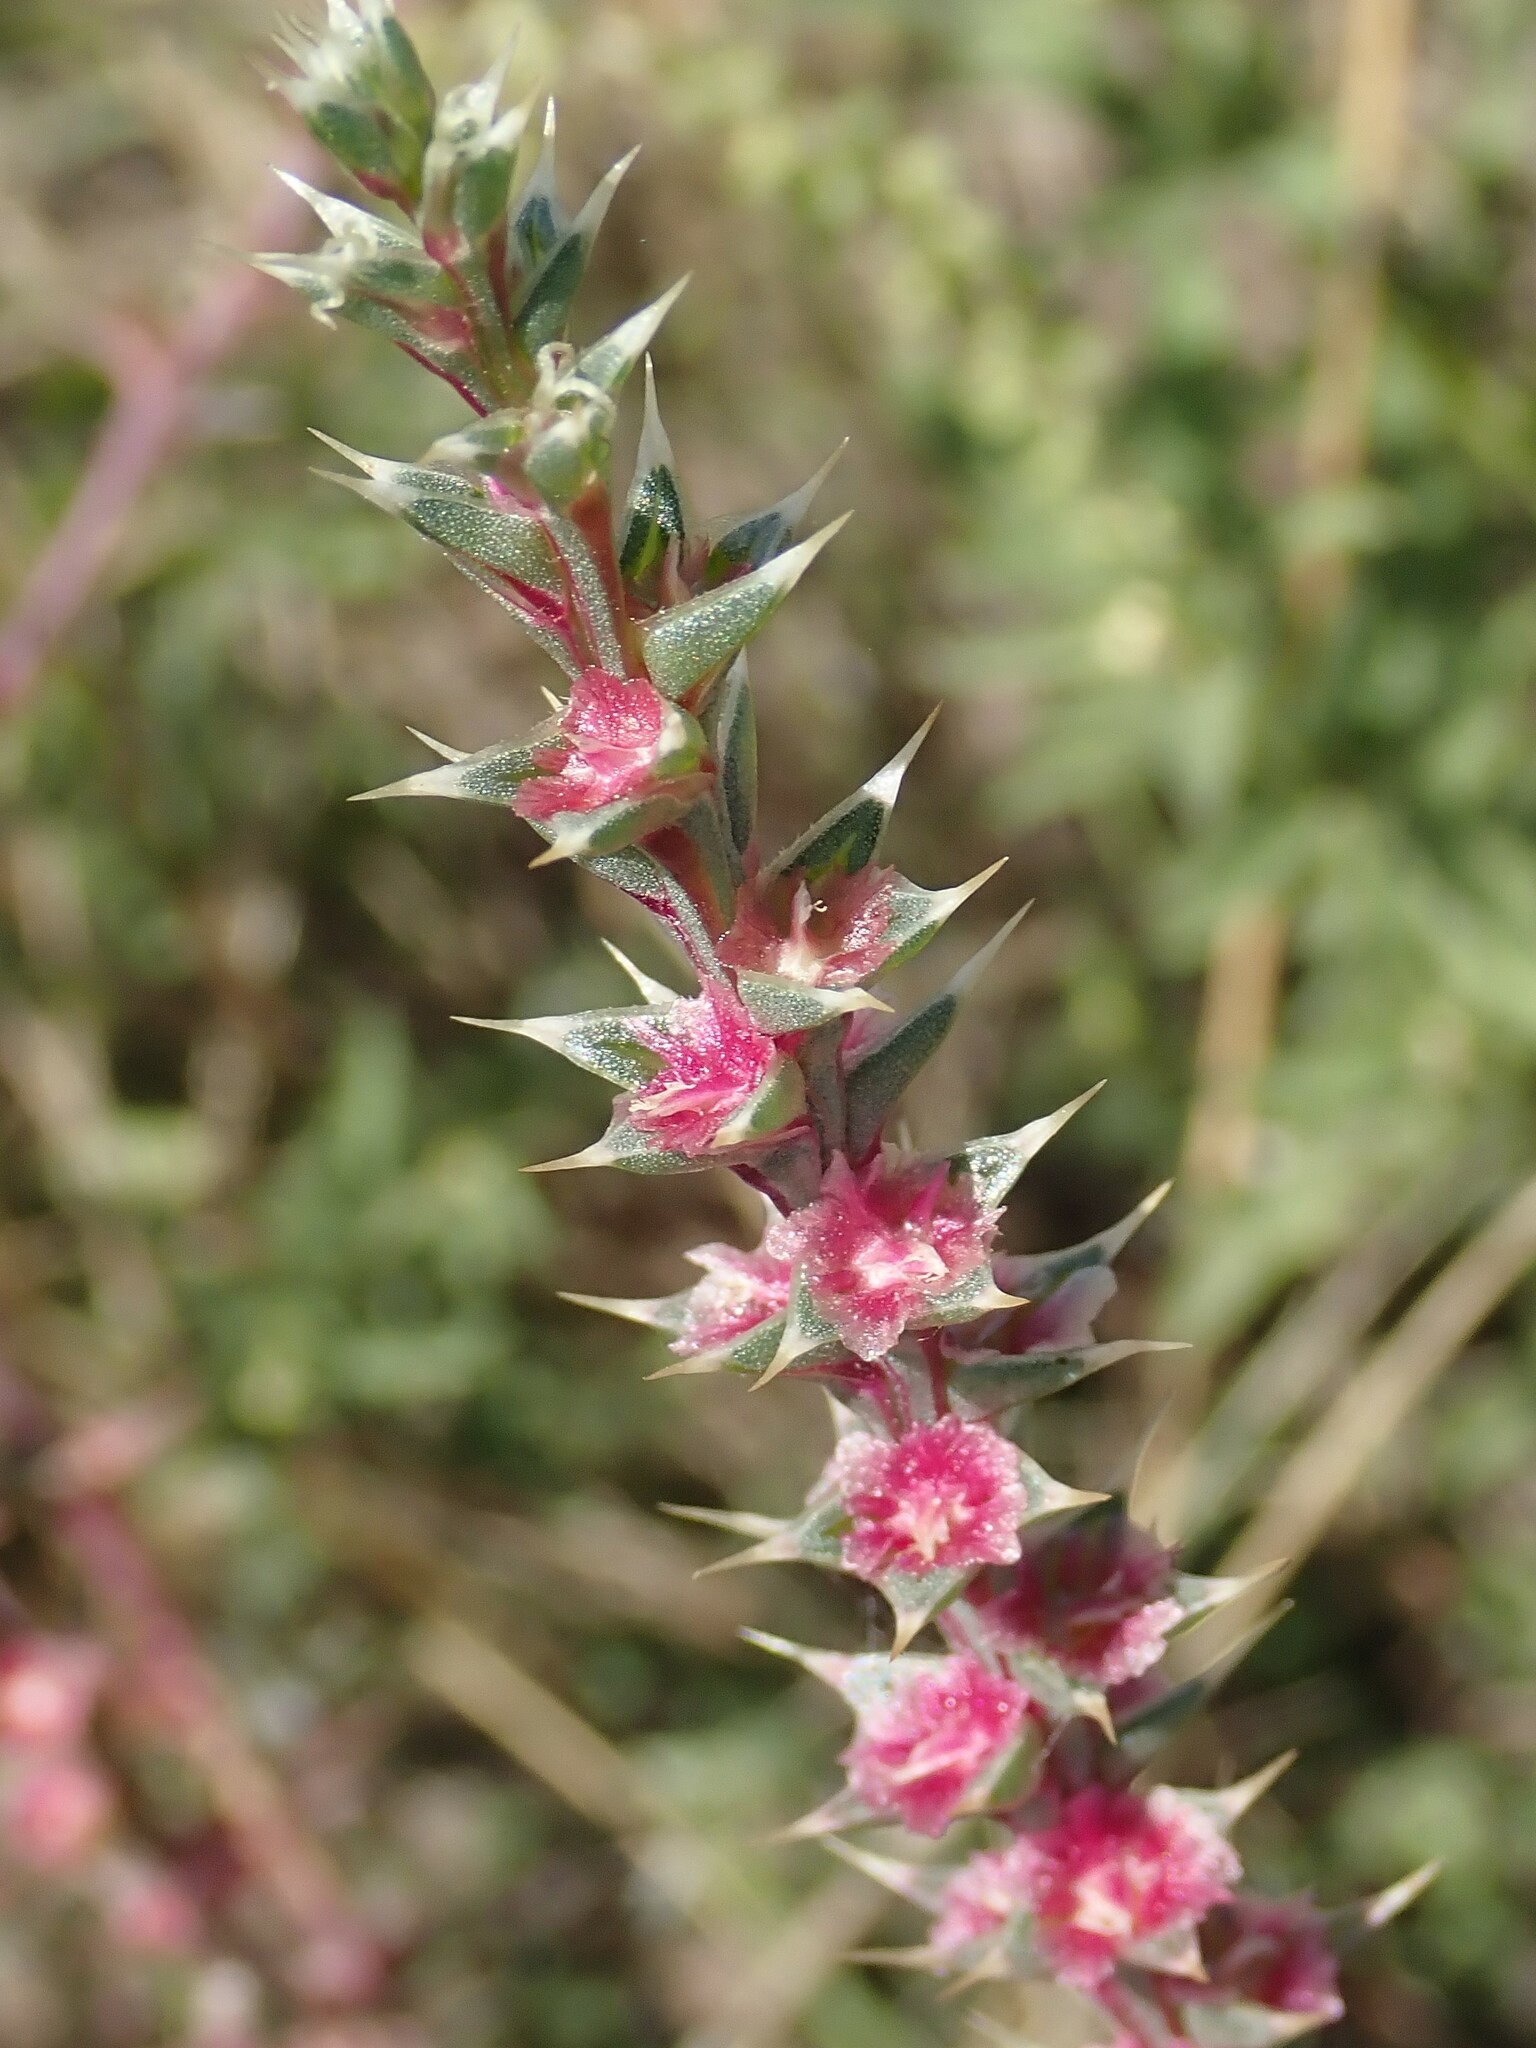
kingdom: Plantae
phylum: Tracheophyta
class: Magnoliopsida
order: Caryophyllales
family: Amaranthaceae
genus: Salsola
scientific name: Salsola tragus
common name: Prickly russian thistle
